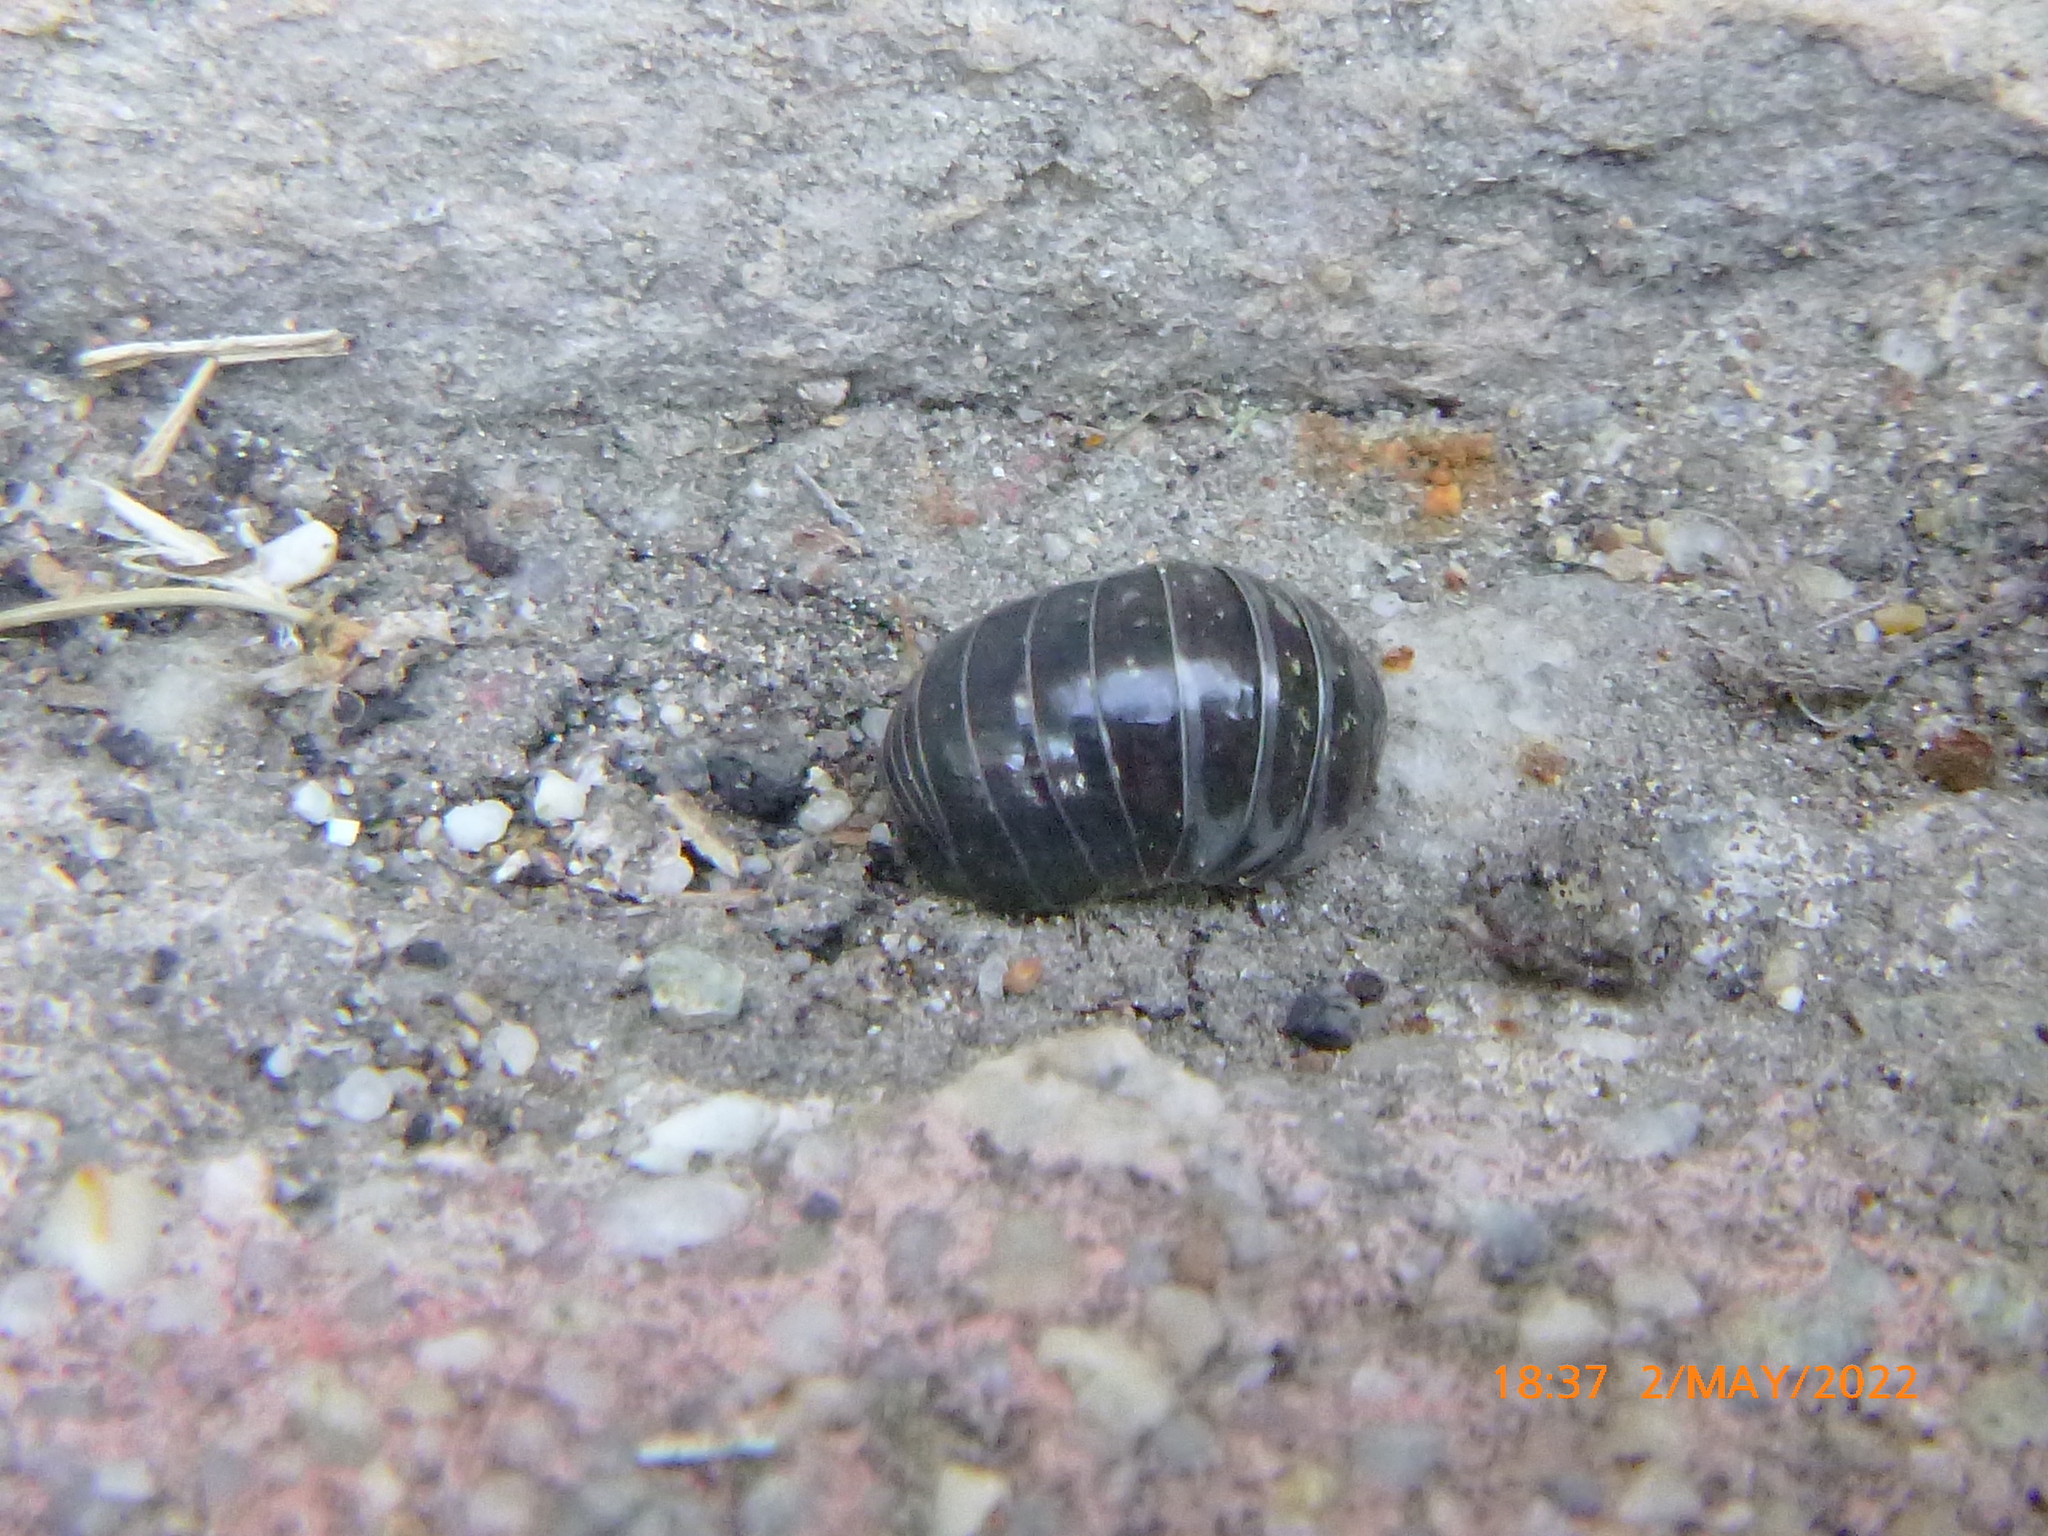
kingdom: Animalia
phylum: Arthropoda
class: Malacostraca
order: Isopoda
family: Armadillidiidae
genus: Armadillidium
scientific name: Armadillidium vulgare
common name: Common pill woodlouse
